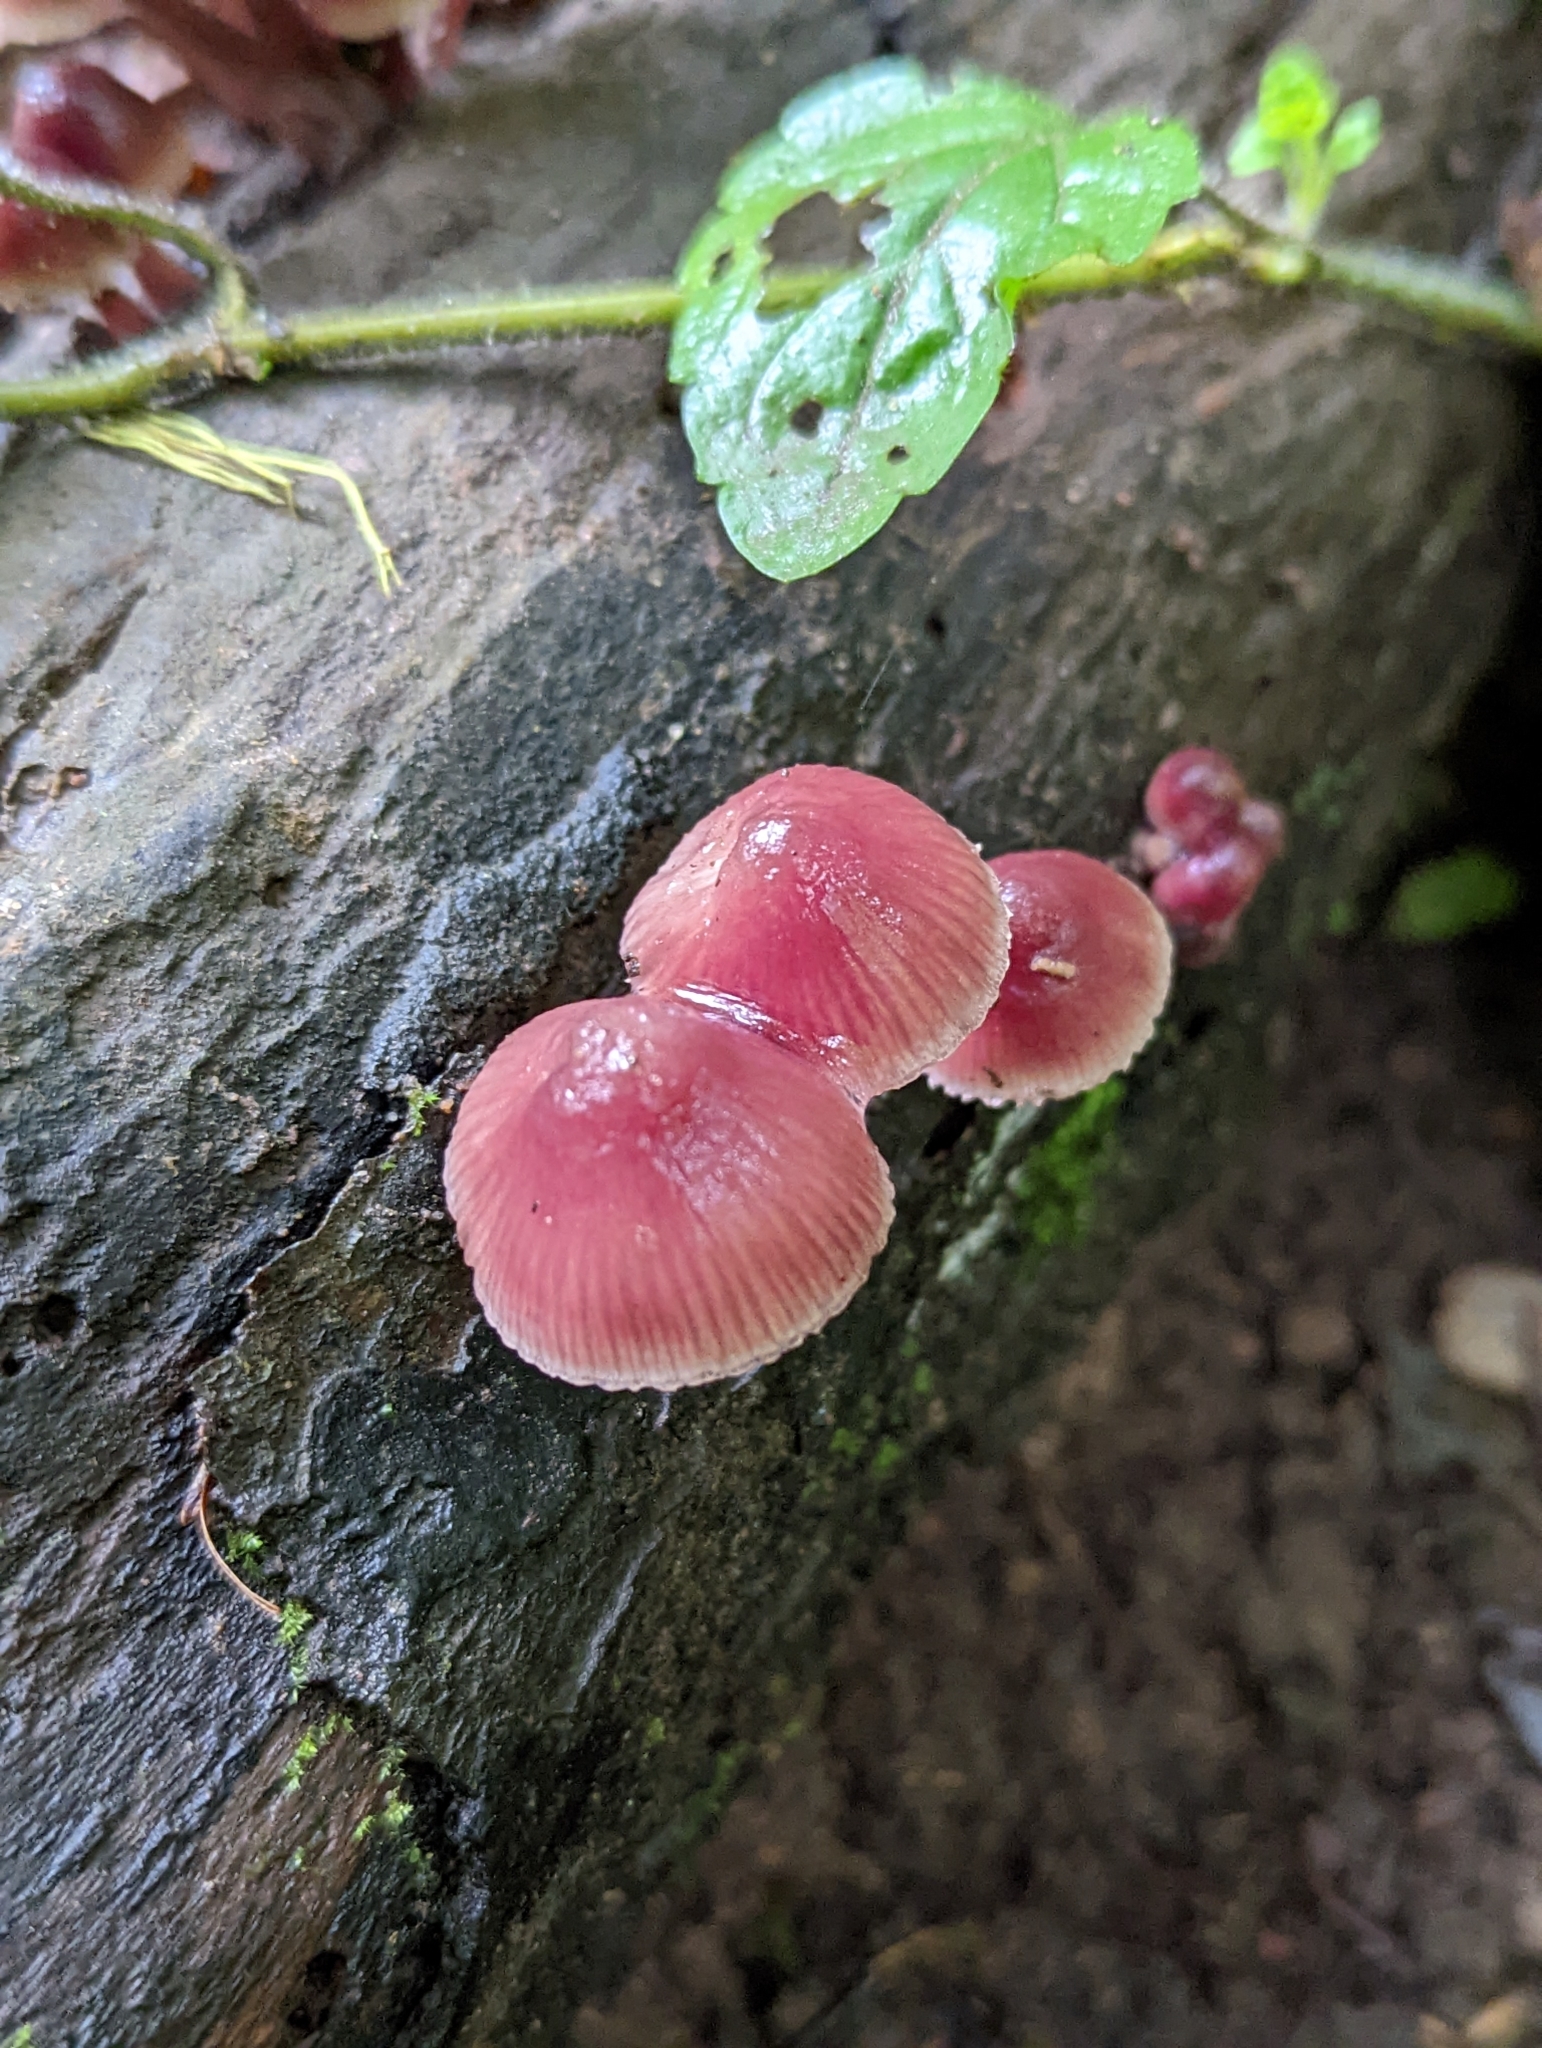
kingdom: Fungi
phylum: Basidiomycota
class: Agaricomycetes
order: Agaricales
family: Mycenaceae
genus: Mycena
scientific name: Mycena haematopus
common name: Burgundydrop bonnet
